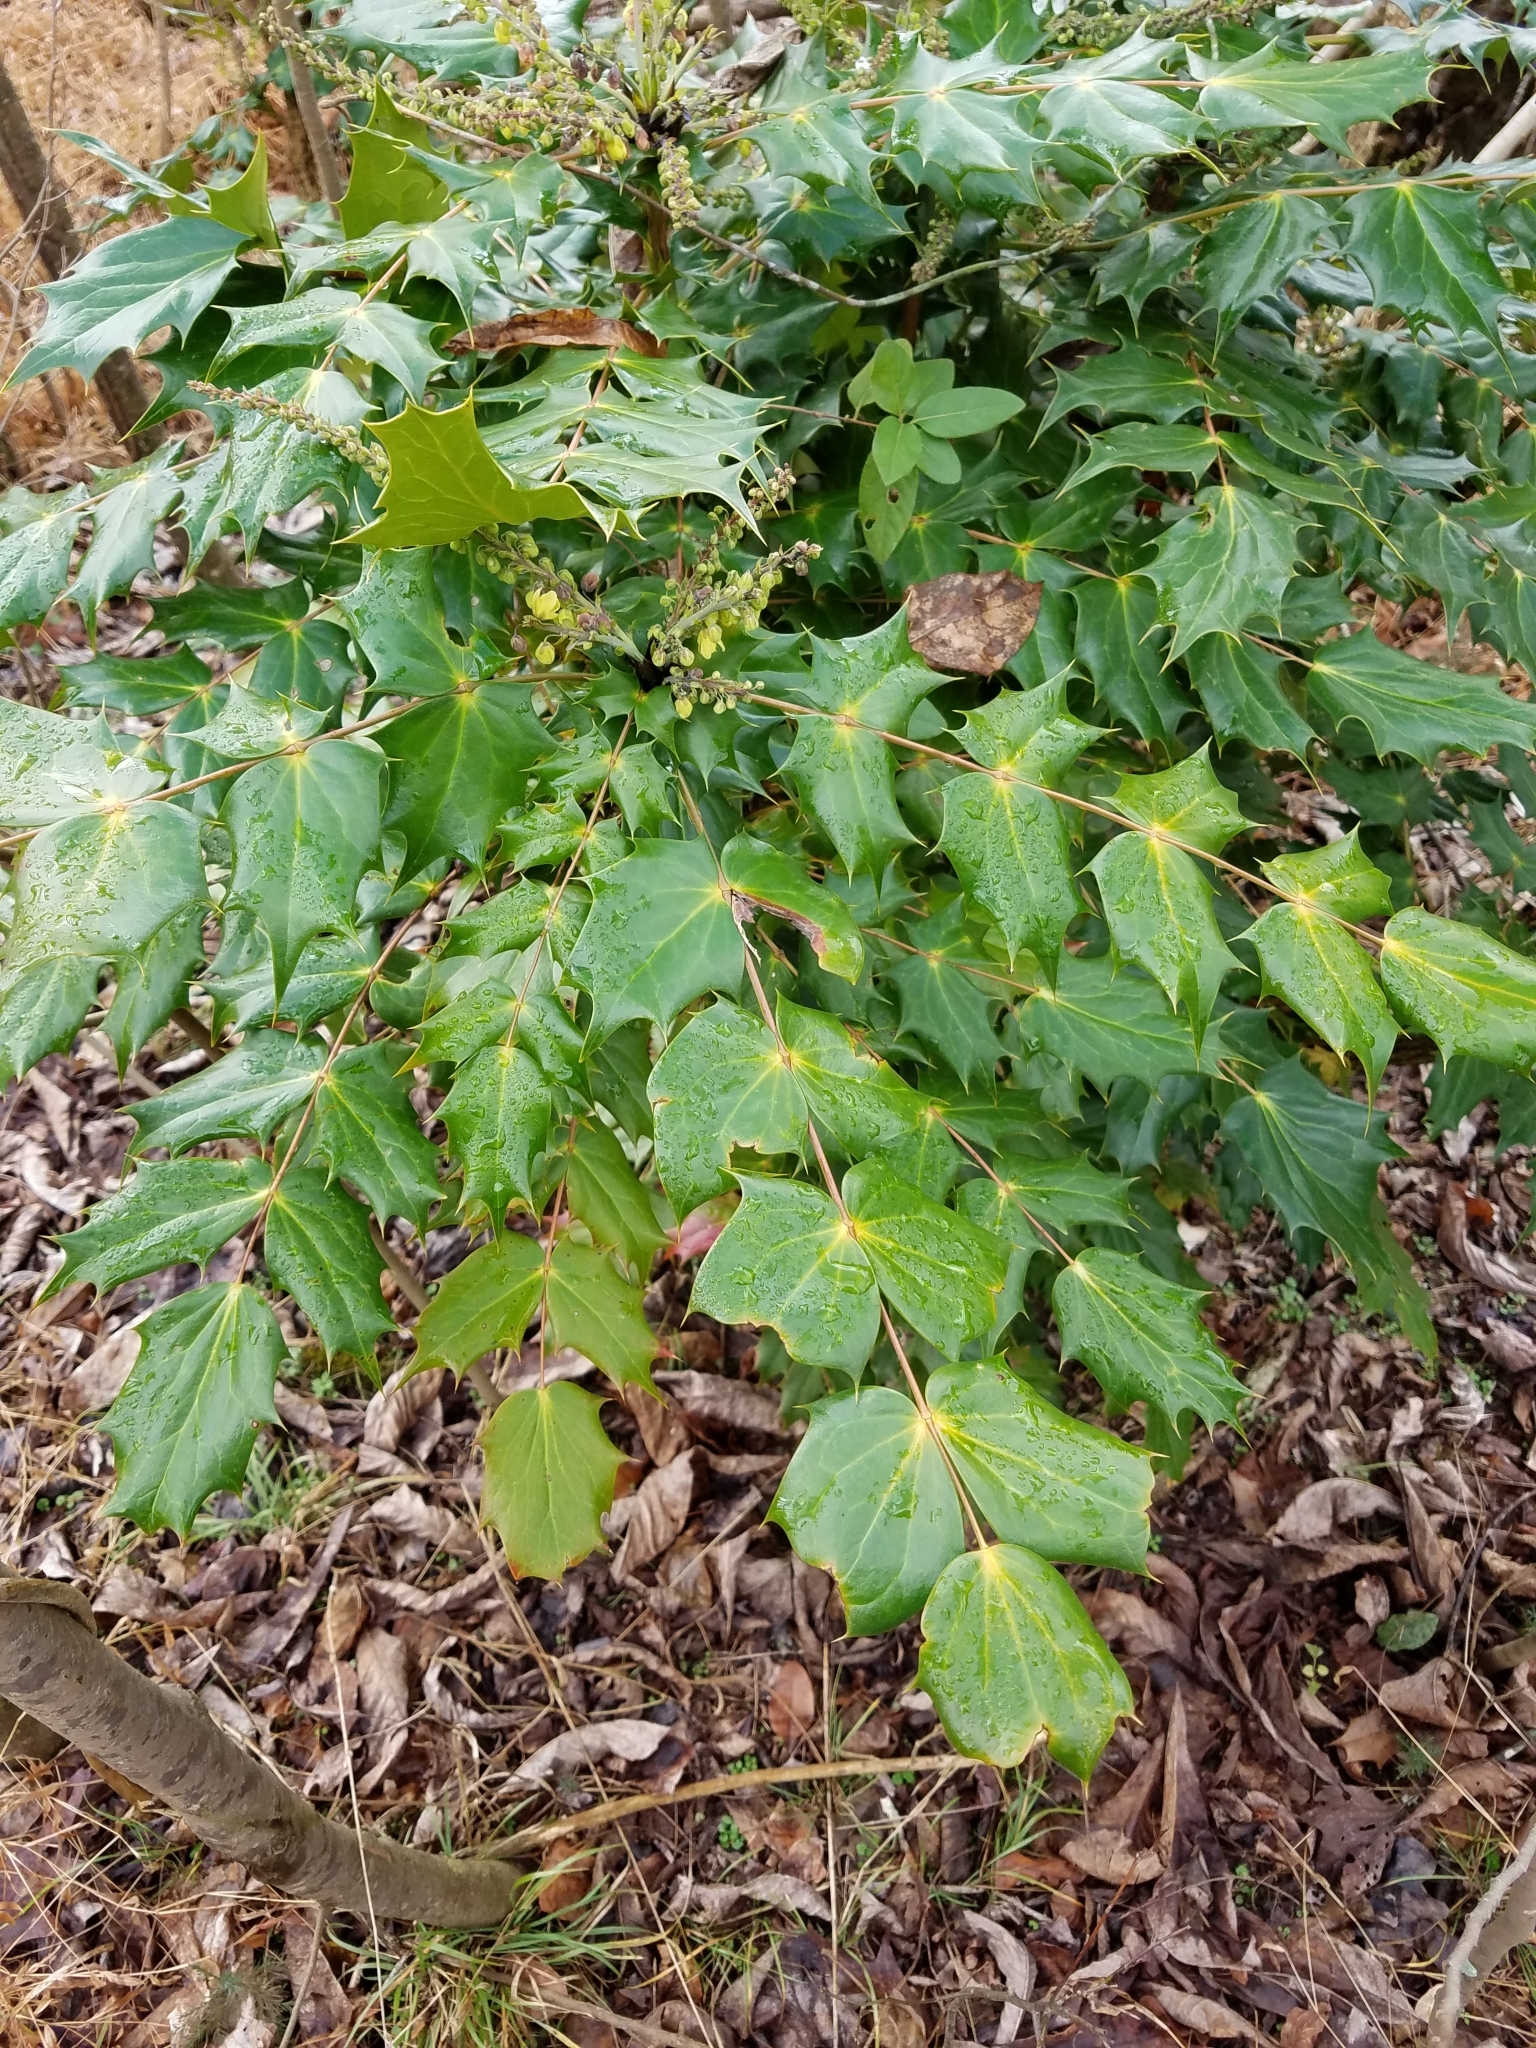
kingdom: Plantae
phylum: Tracheophyta
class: Magnoliopsida
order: Ranunculales
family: Berberidaceae
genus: Mahonia
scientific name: Mahonia bealei
